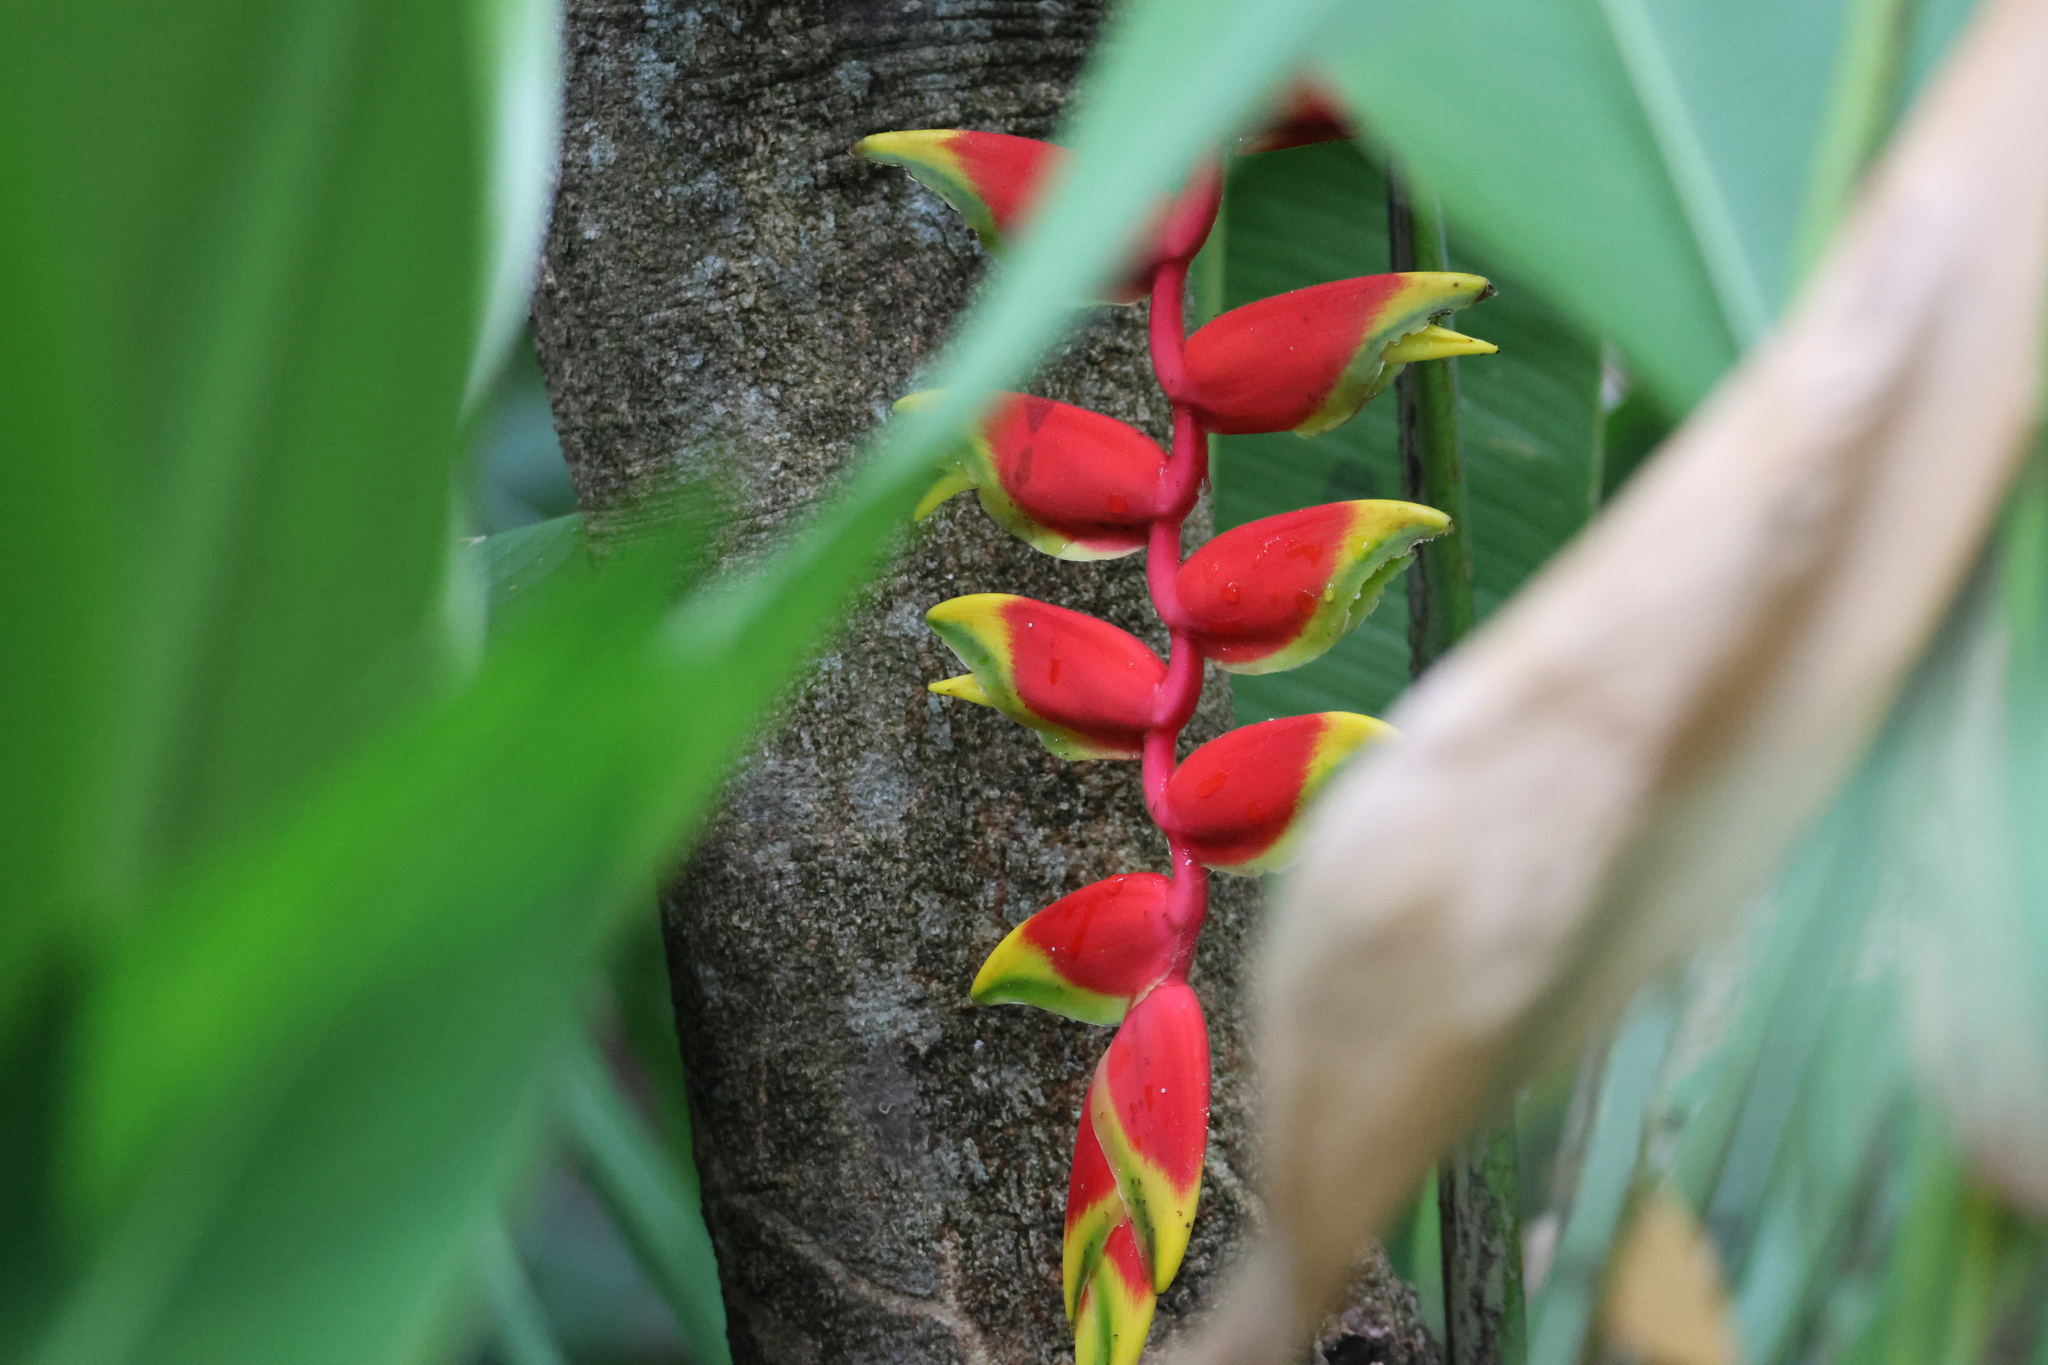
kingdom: Plantae
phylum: Tracheophyta
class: Liliopsida
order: Zingiberales
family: Heliconiaceae
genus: Heliconia
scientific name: Heliconia rostrata
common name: False bird of paradise
